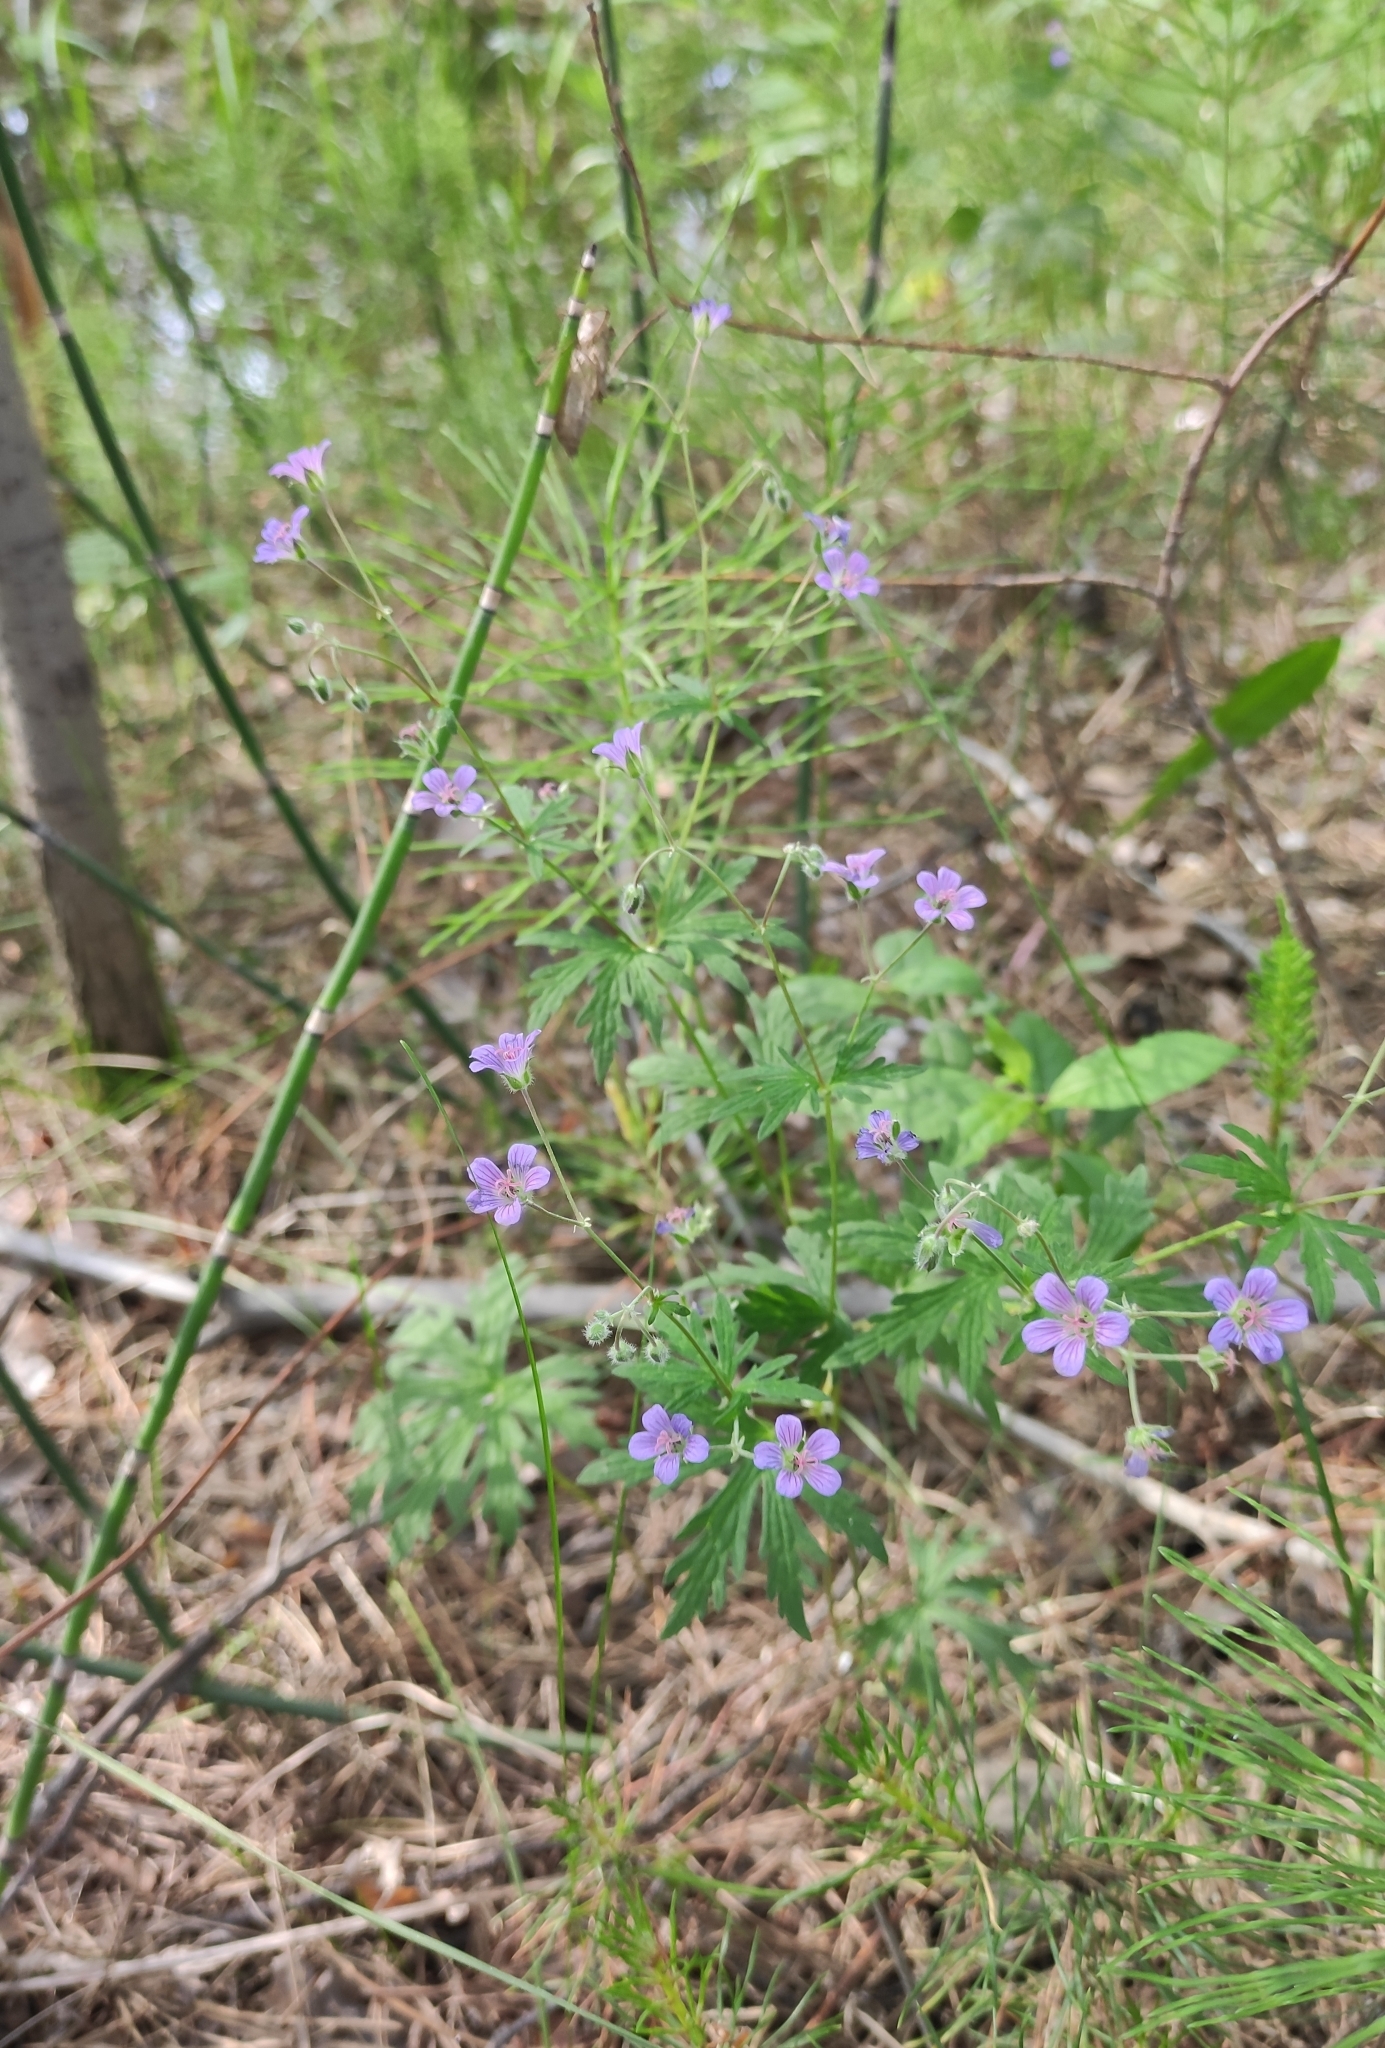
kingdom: Plantae
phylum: Tracheophyta
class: Magnoliopsida
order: Geraniales
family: Geraniaceae
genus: Geranium
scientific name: Geranium pseudosibiricum
